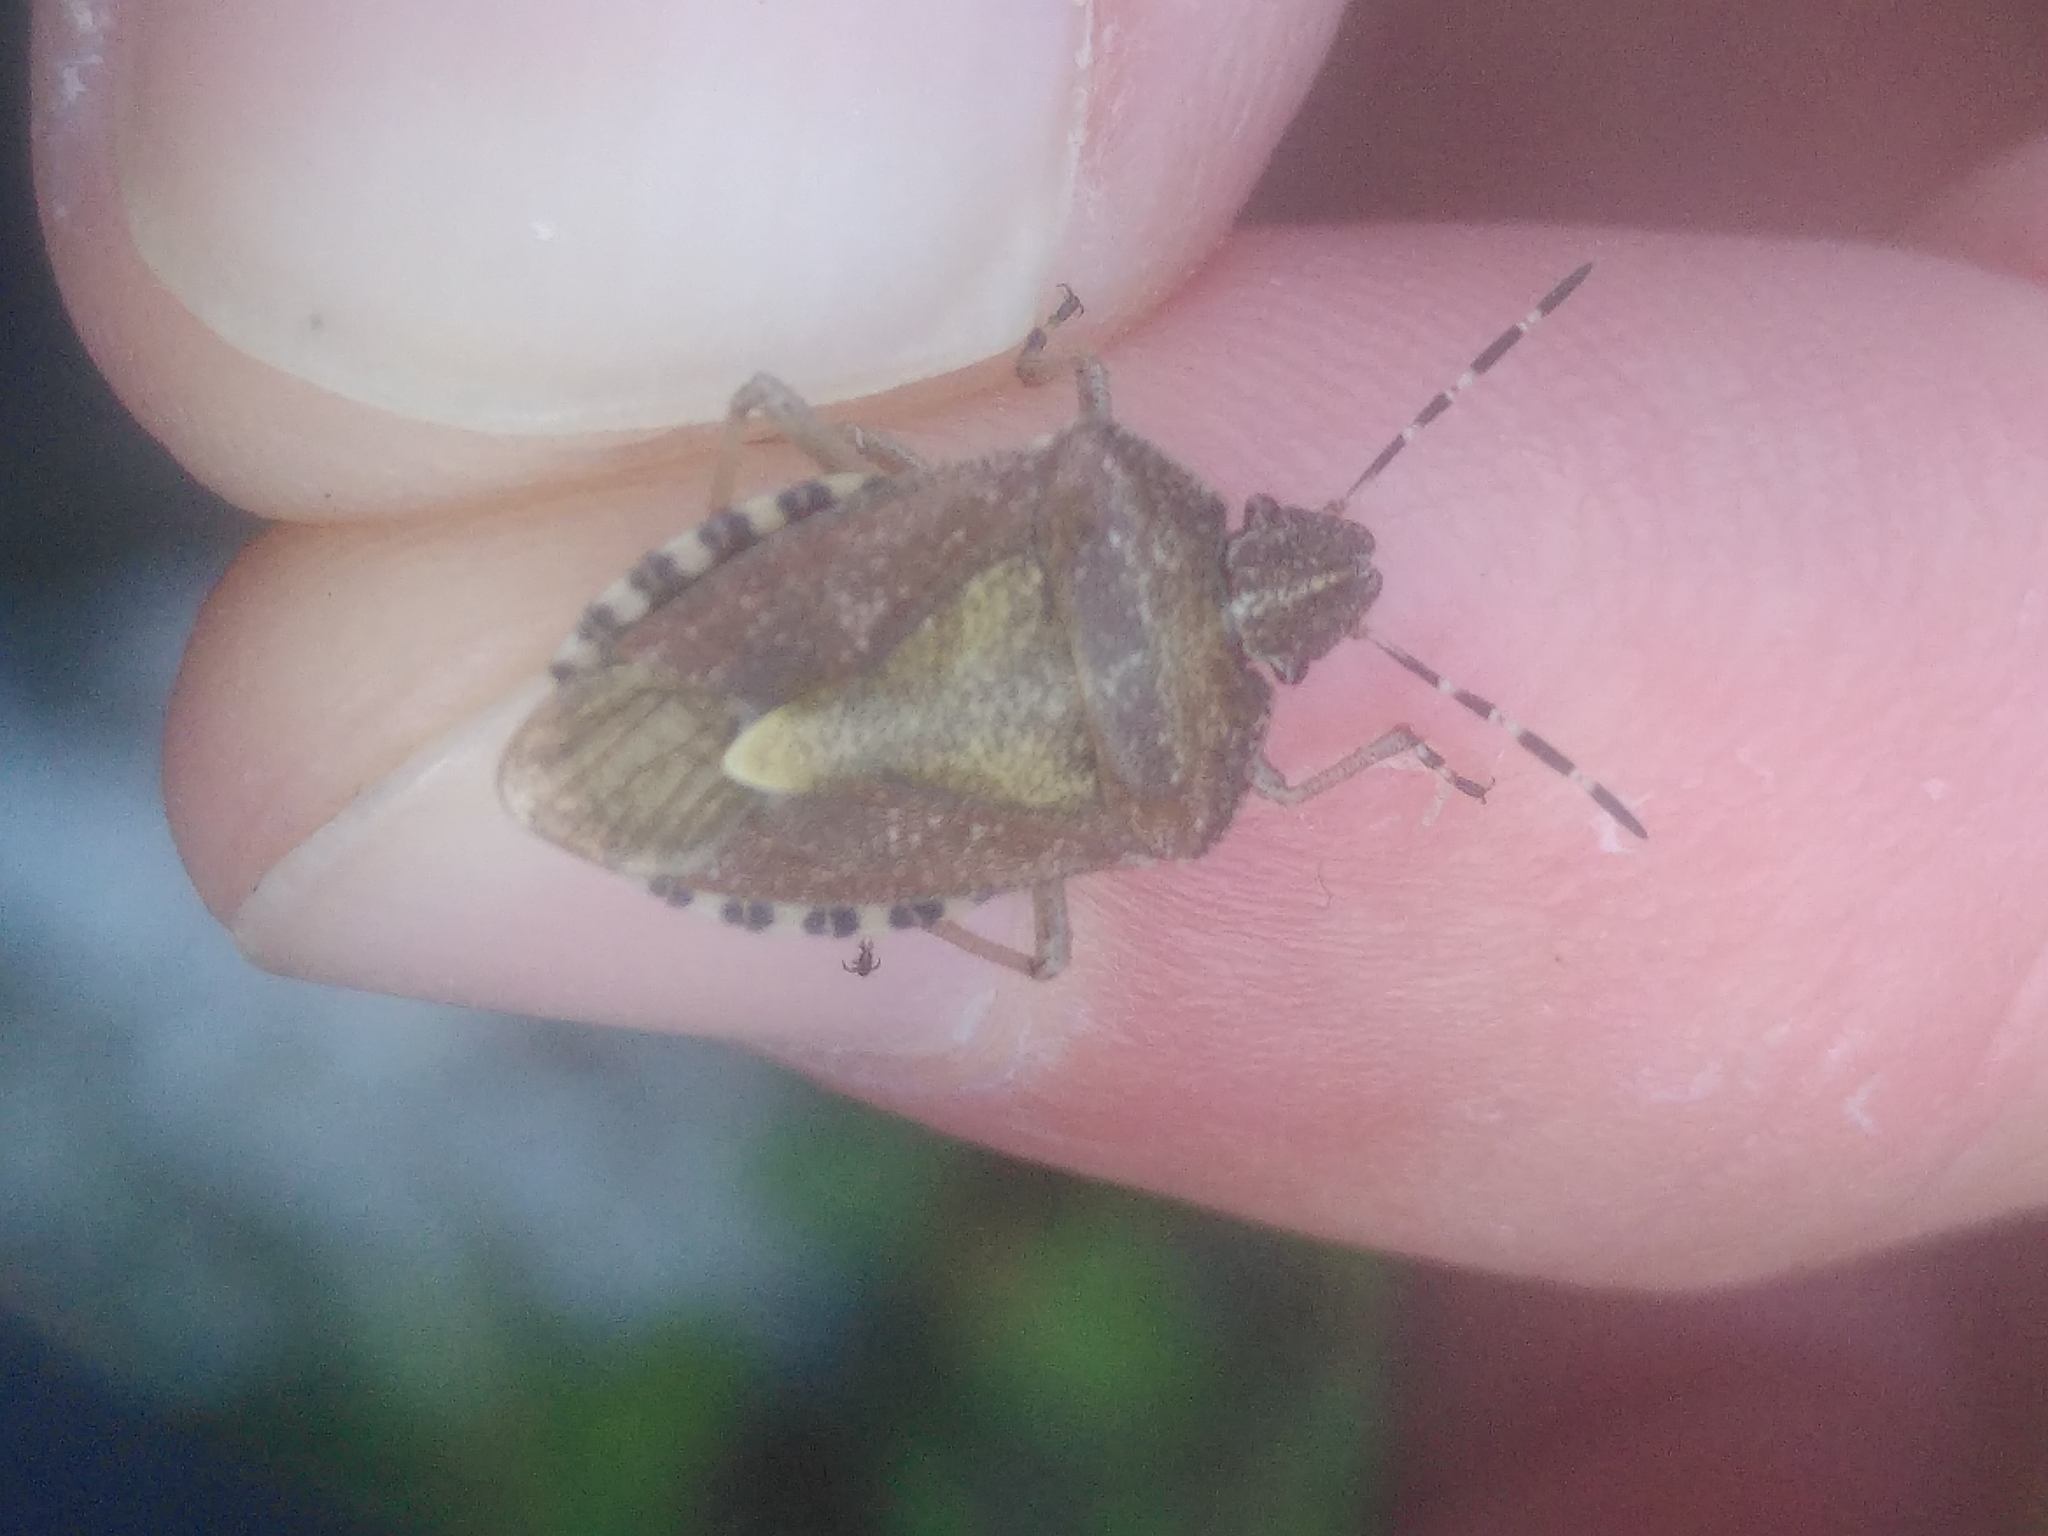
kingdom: Animalia
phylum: Arthropoda
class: Insecta
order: Hemiptera
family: Pentatomidae
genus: Dolycoris
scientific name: Dolycoris baccarum
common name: Sloe bug
